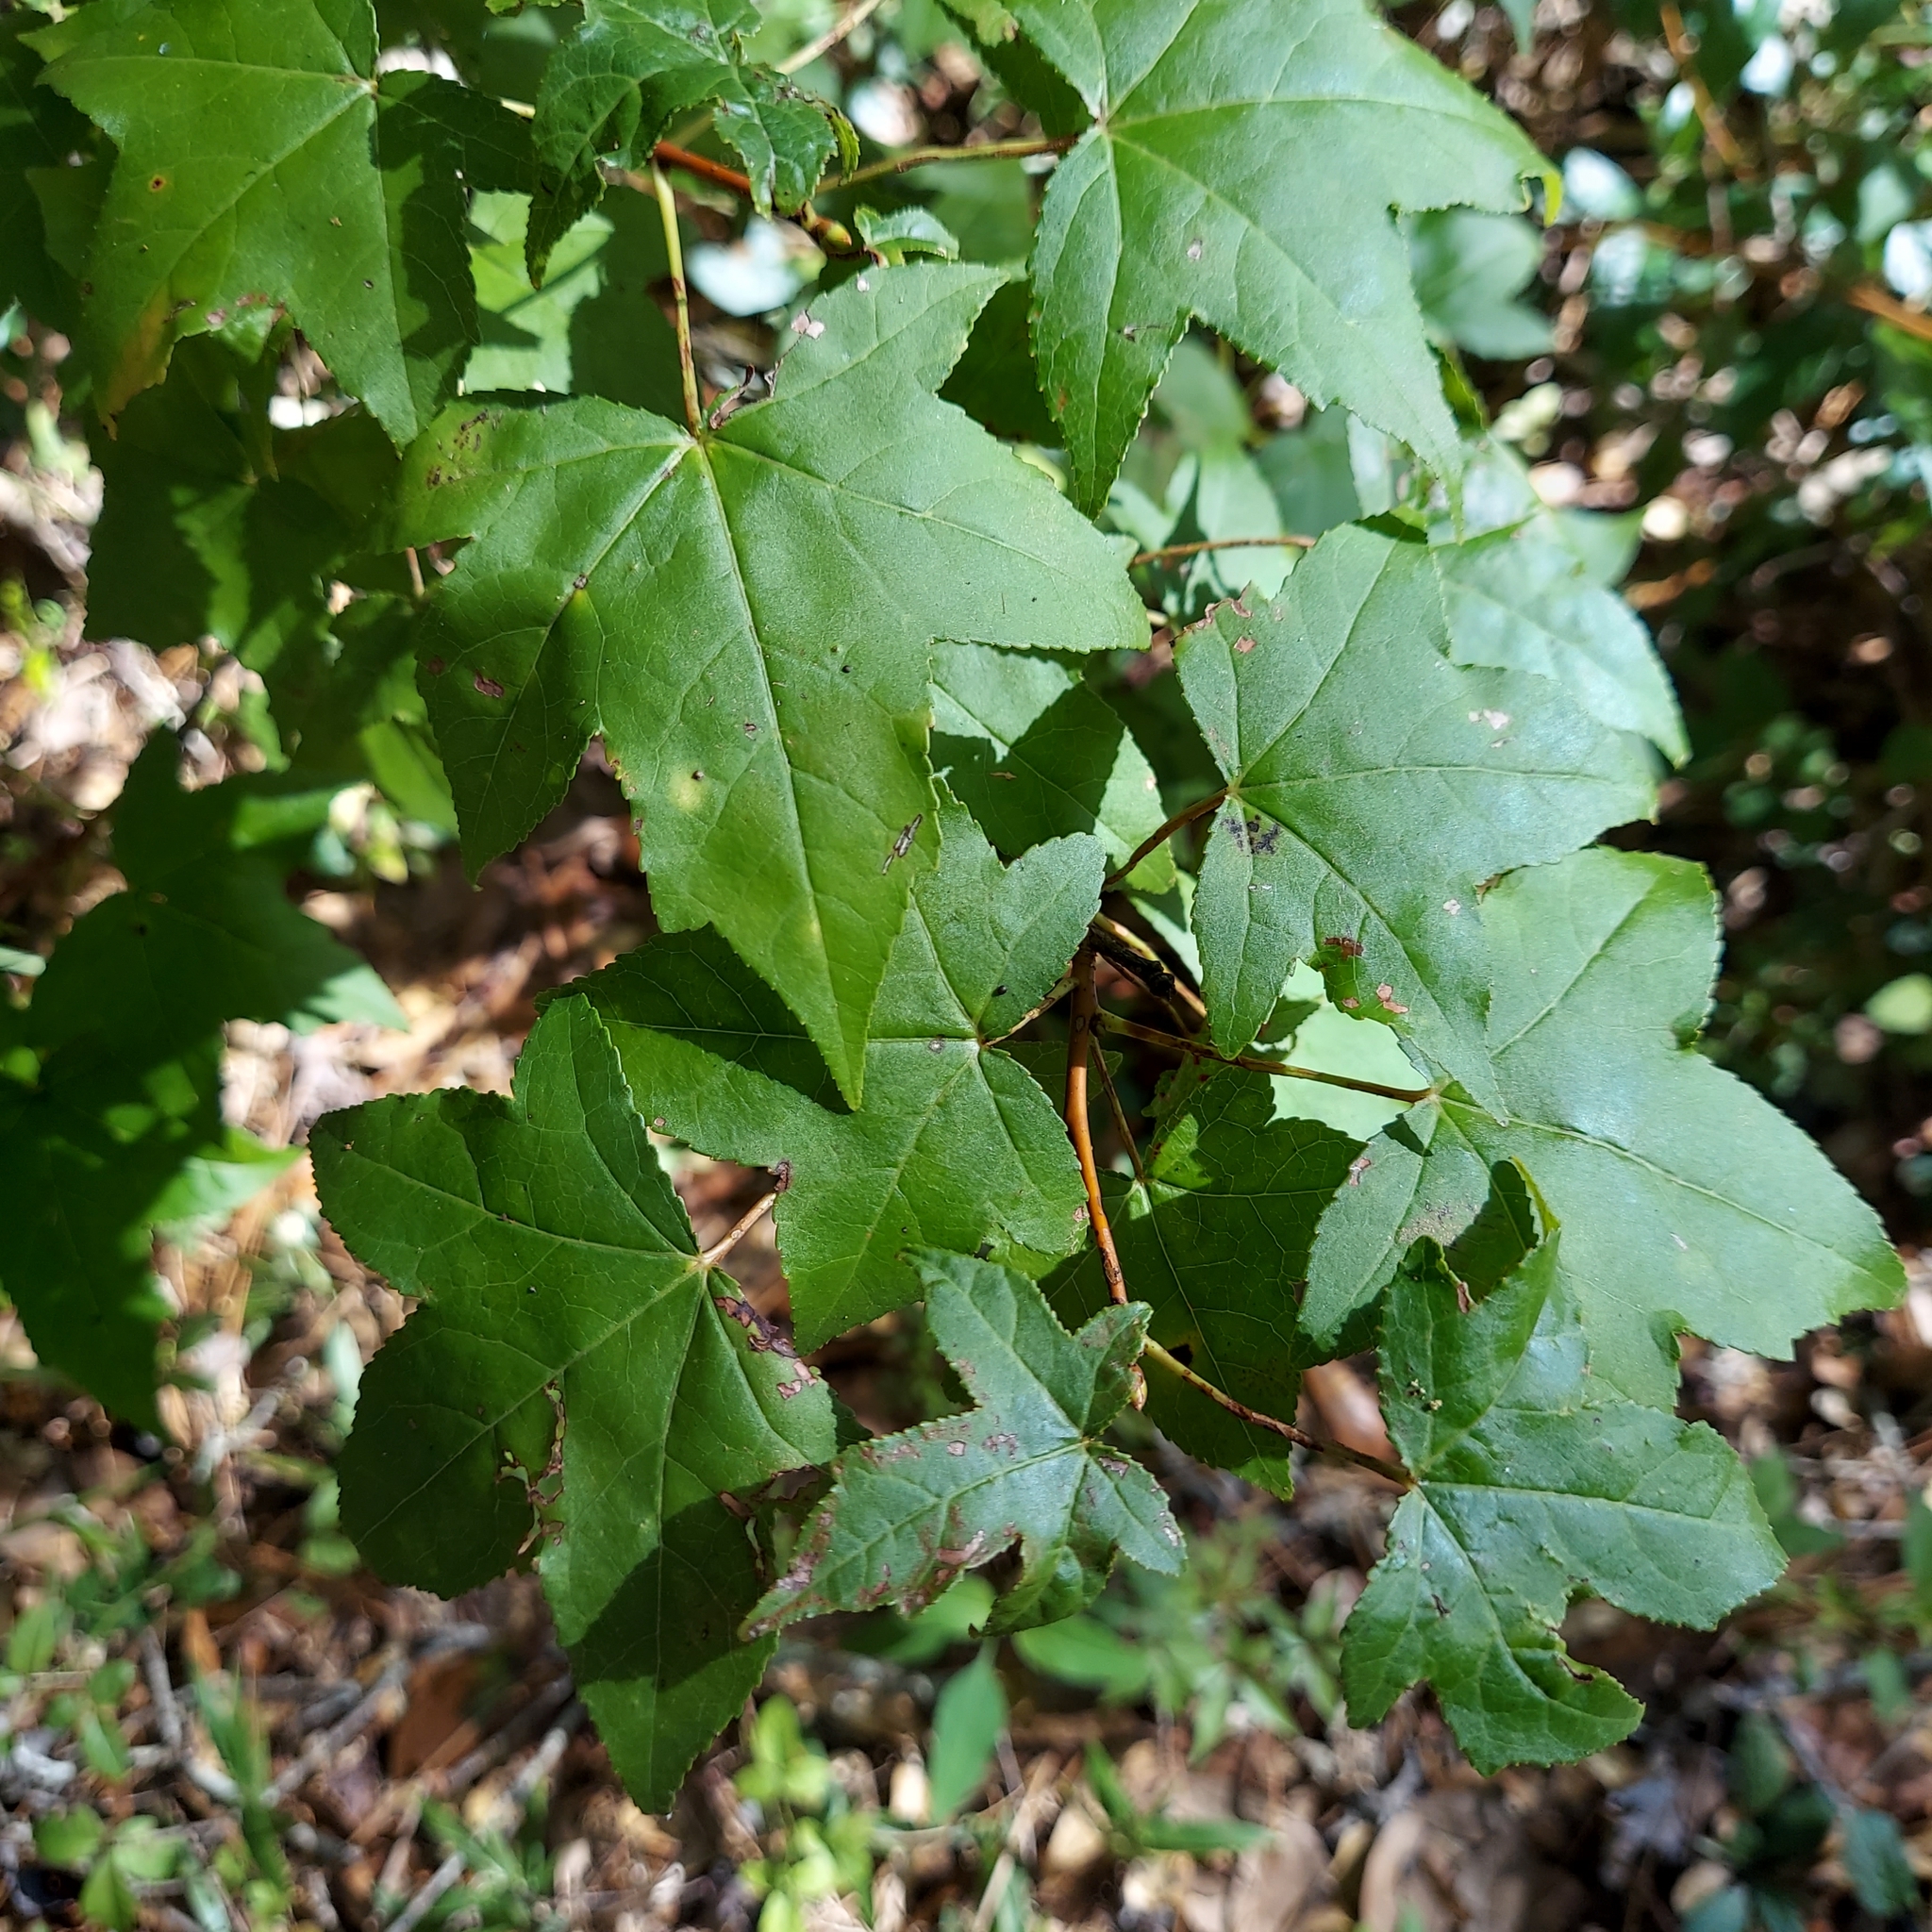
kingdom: Plantae
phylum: Tracheophyta
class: Magnoliopsida
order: Saxifragales
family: Altingiaceae
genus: Liquidambar
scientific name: Liquidambar styraciflua
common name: Sweet gum
